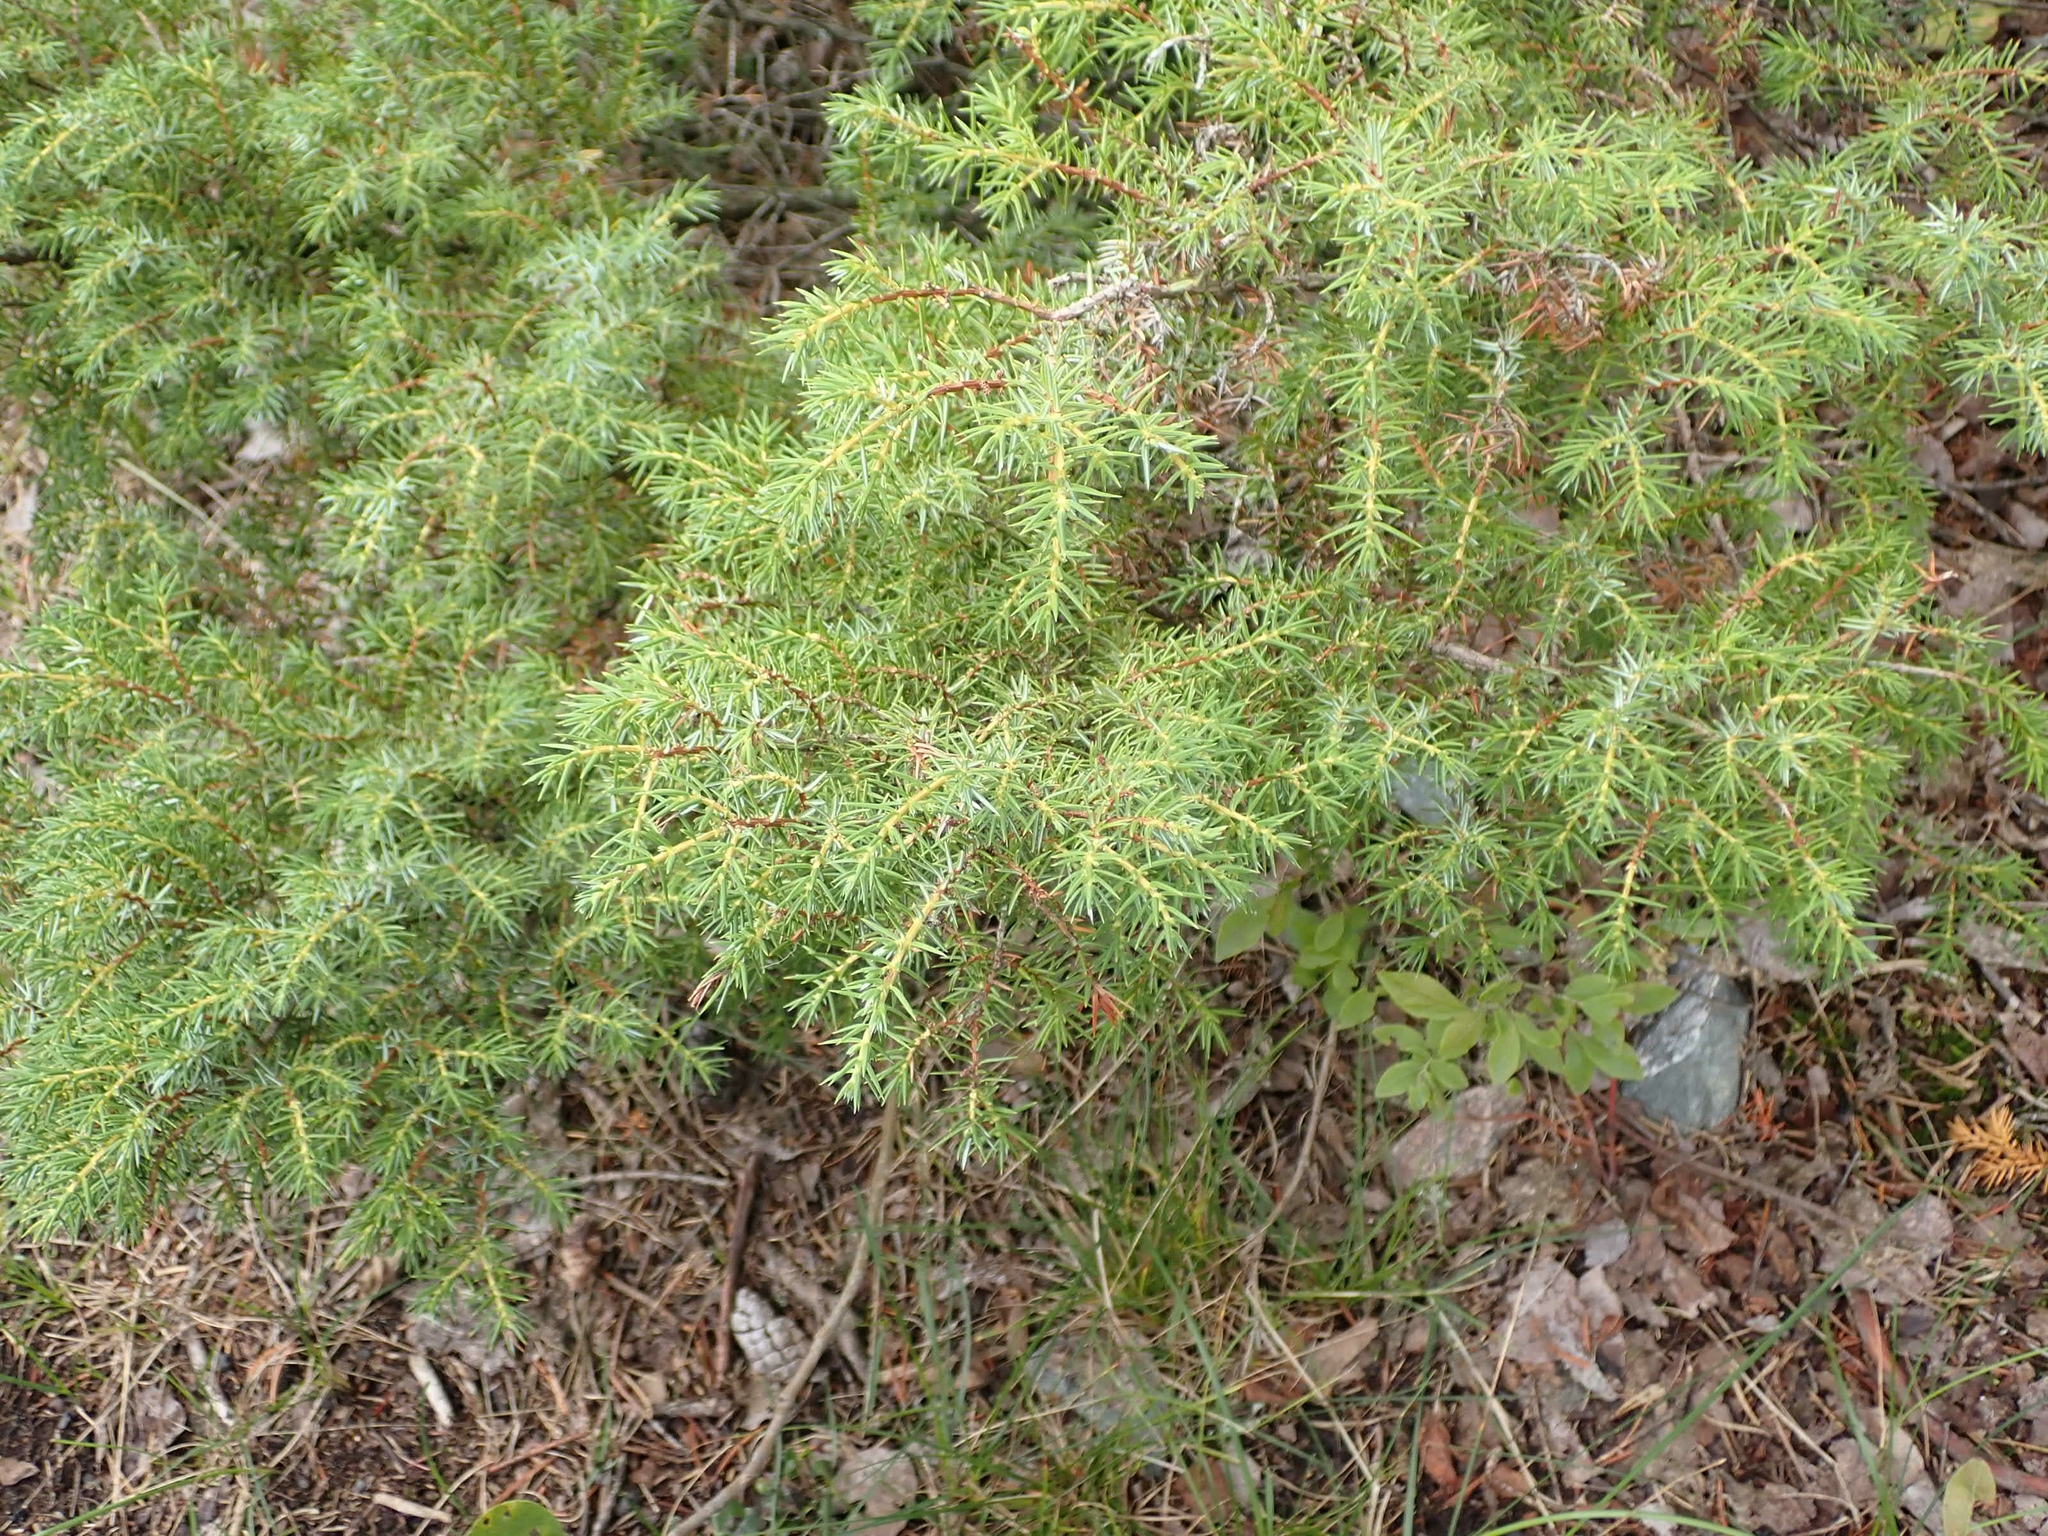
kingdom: Plantae
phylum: Tracheophyta
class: Pinopsida
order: Pinales
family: Cupressaceae
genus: Juniperus
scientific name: Juniperus communis
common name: Common juniper
